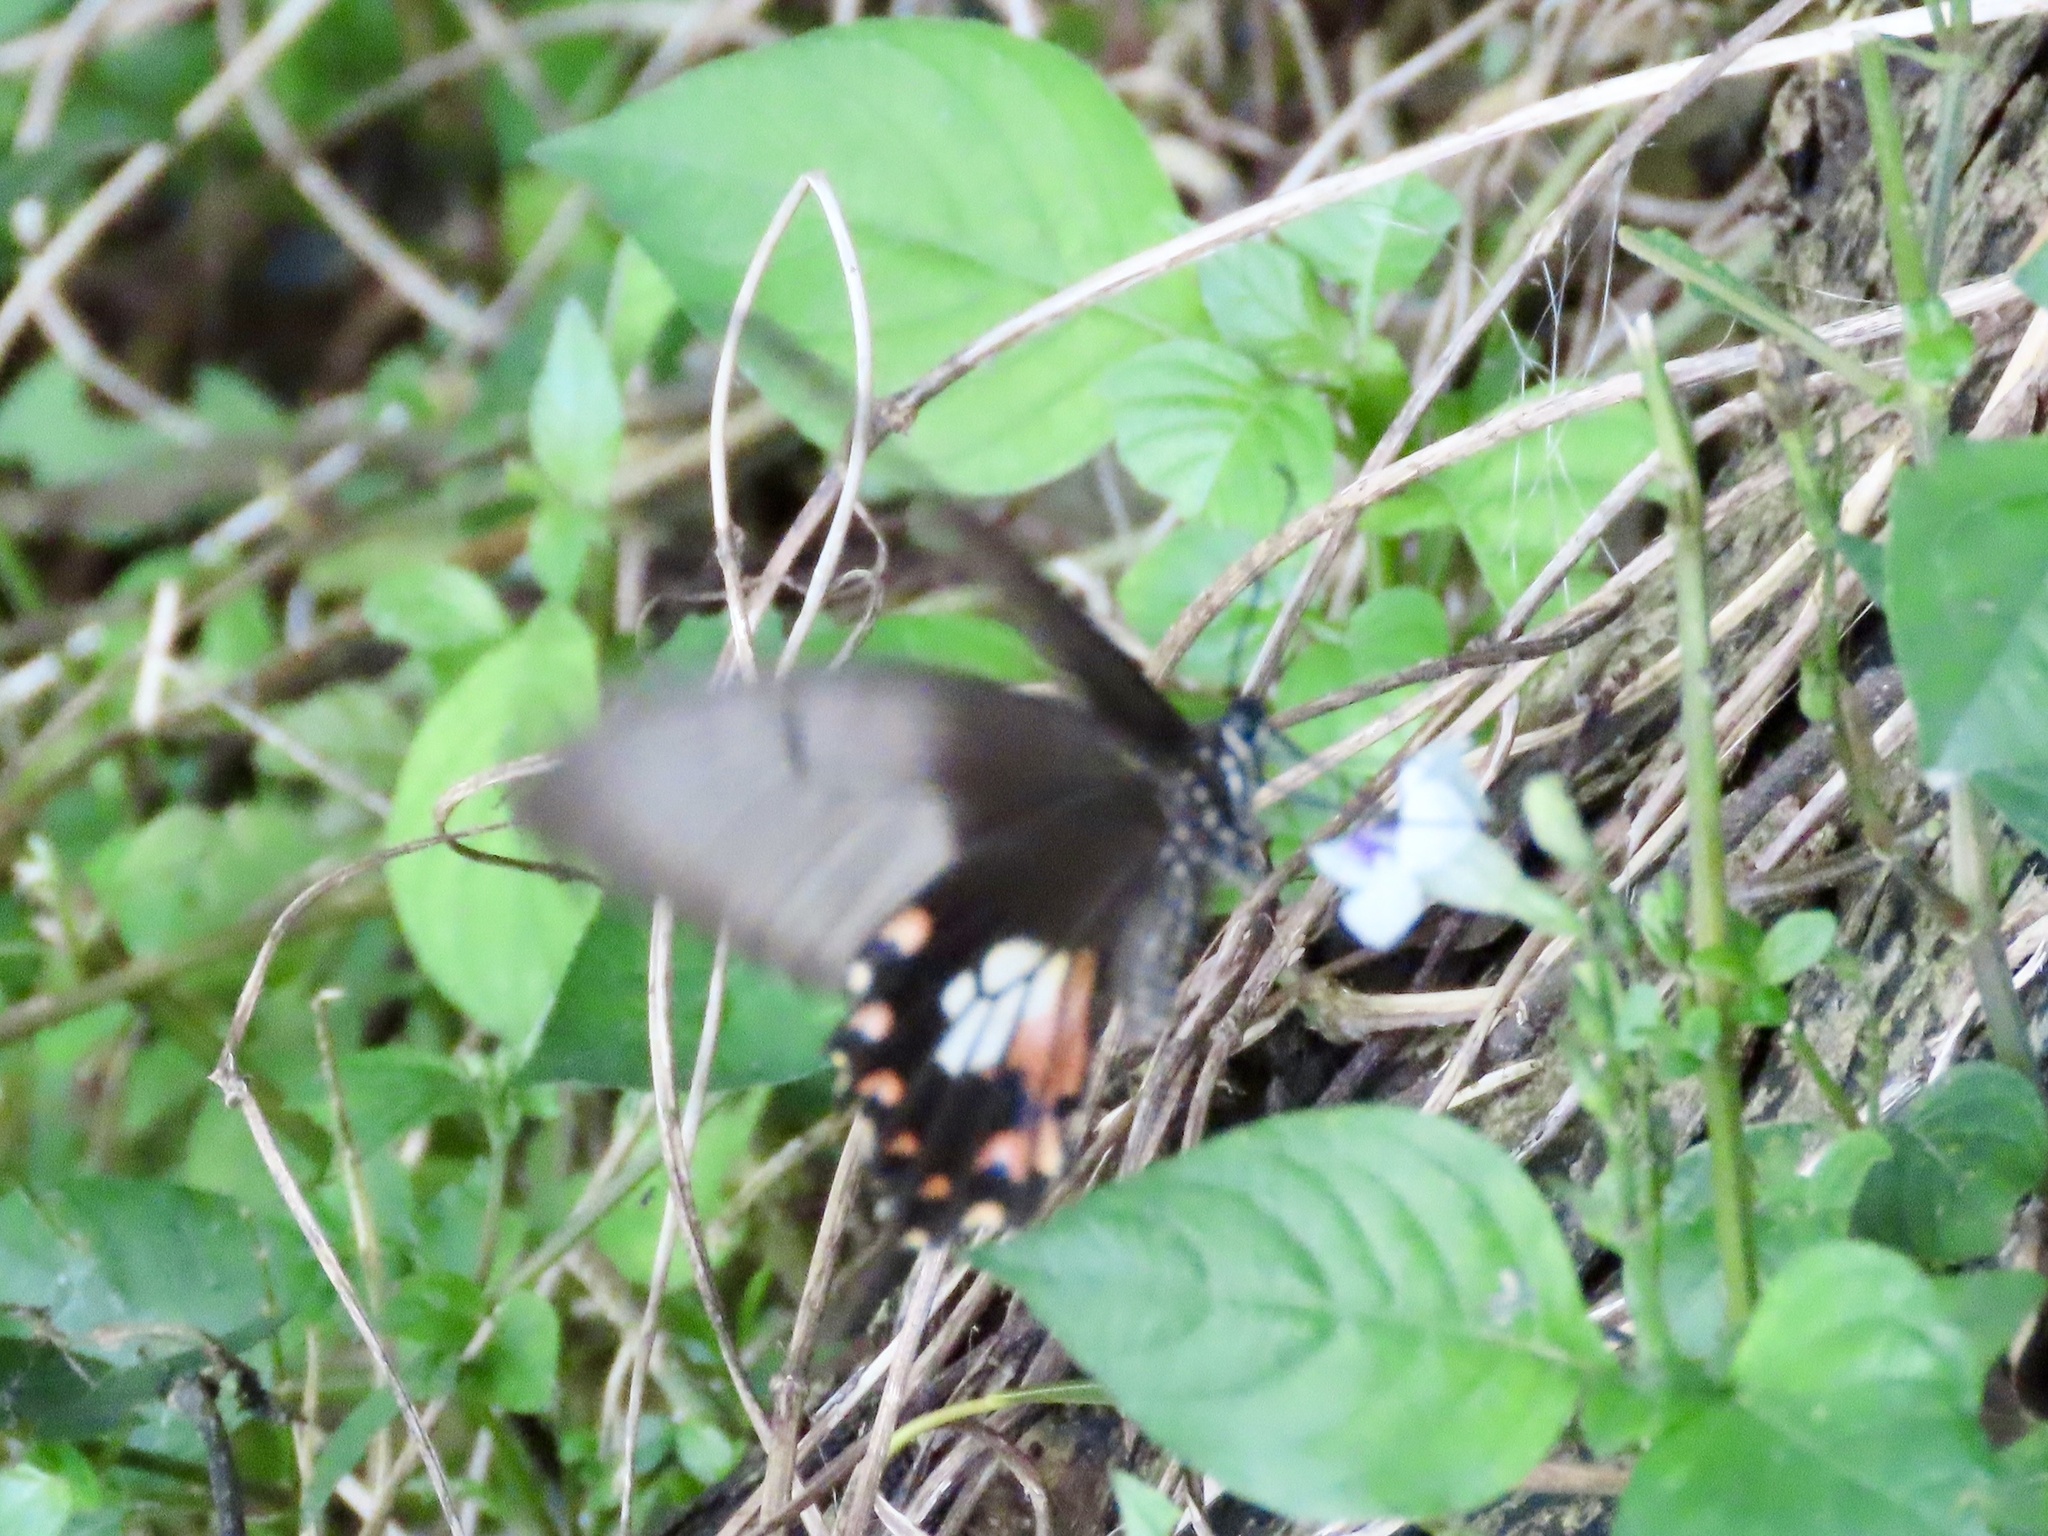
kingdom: Animalia
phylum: Arthropoda
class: Insecta
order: Lepidoptera
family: Papilionidae
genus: Papilio
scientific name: Papilio polytes
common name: Common mormon
